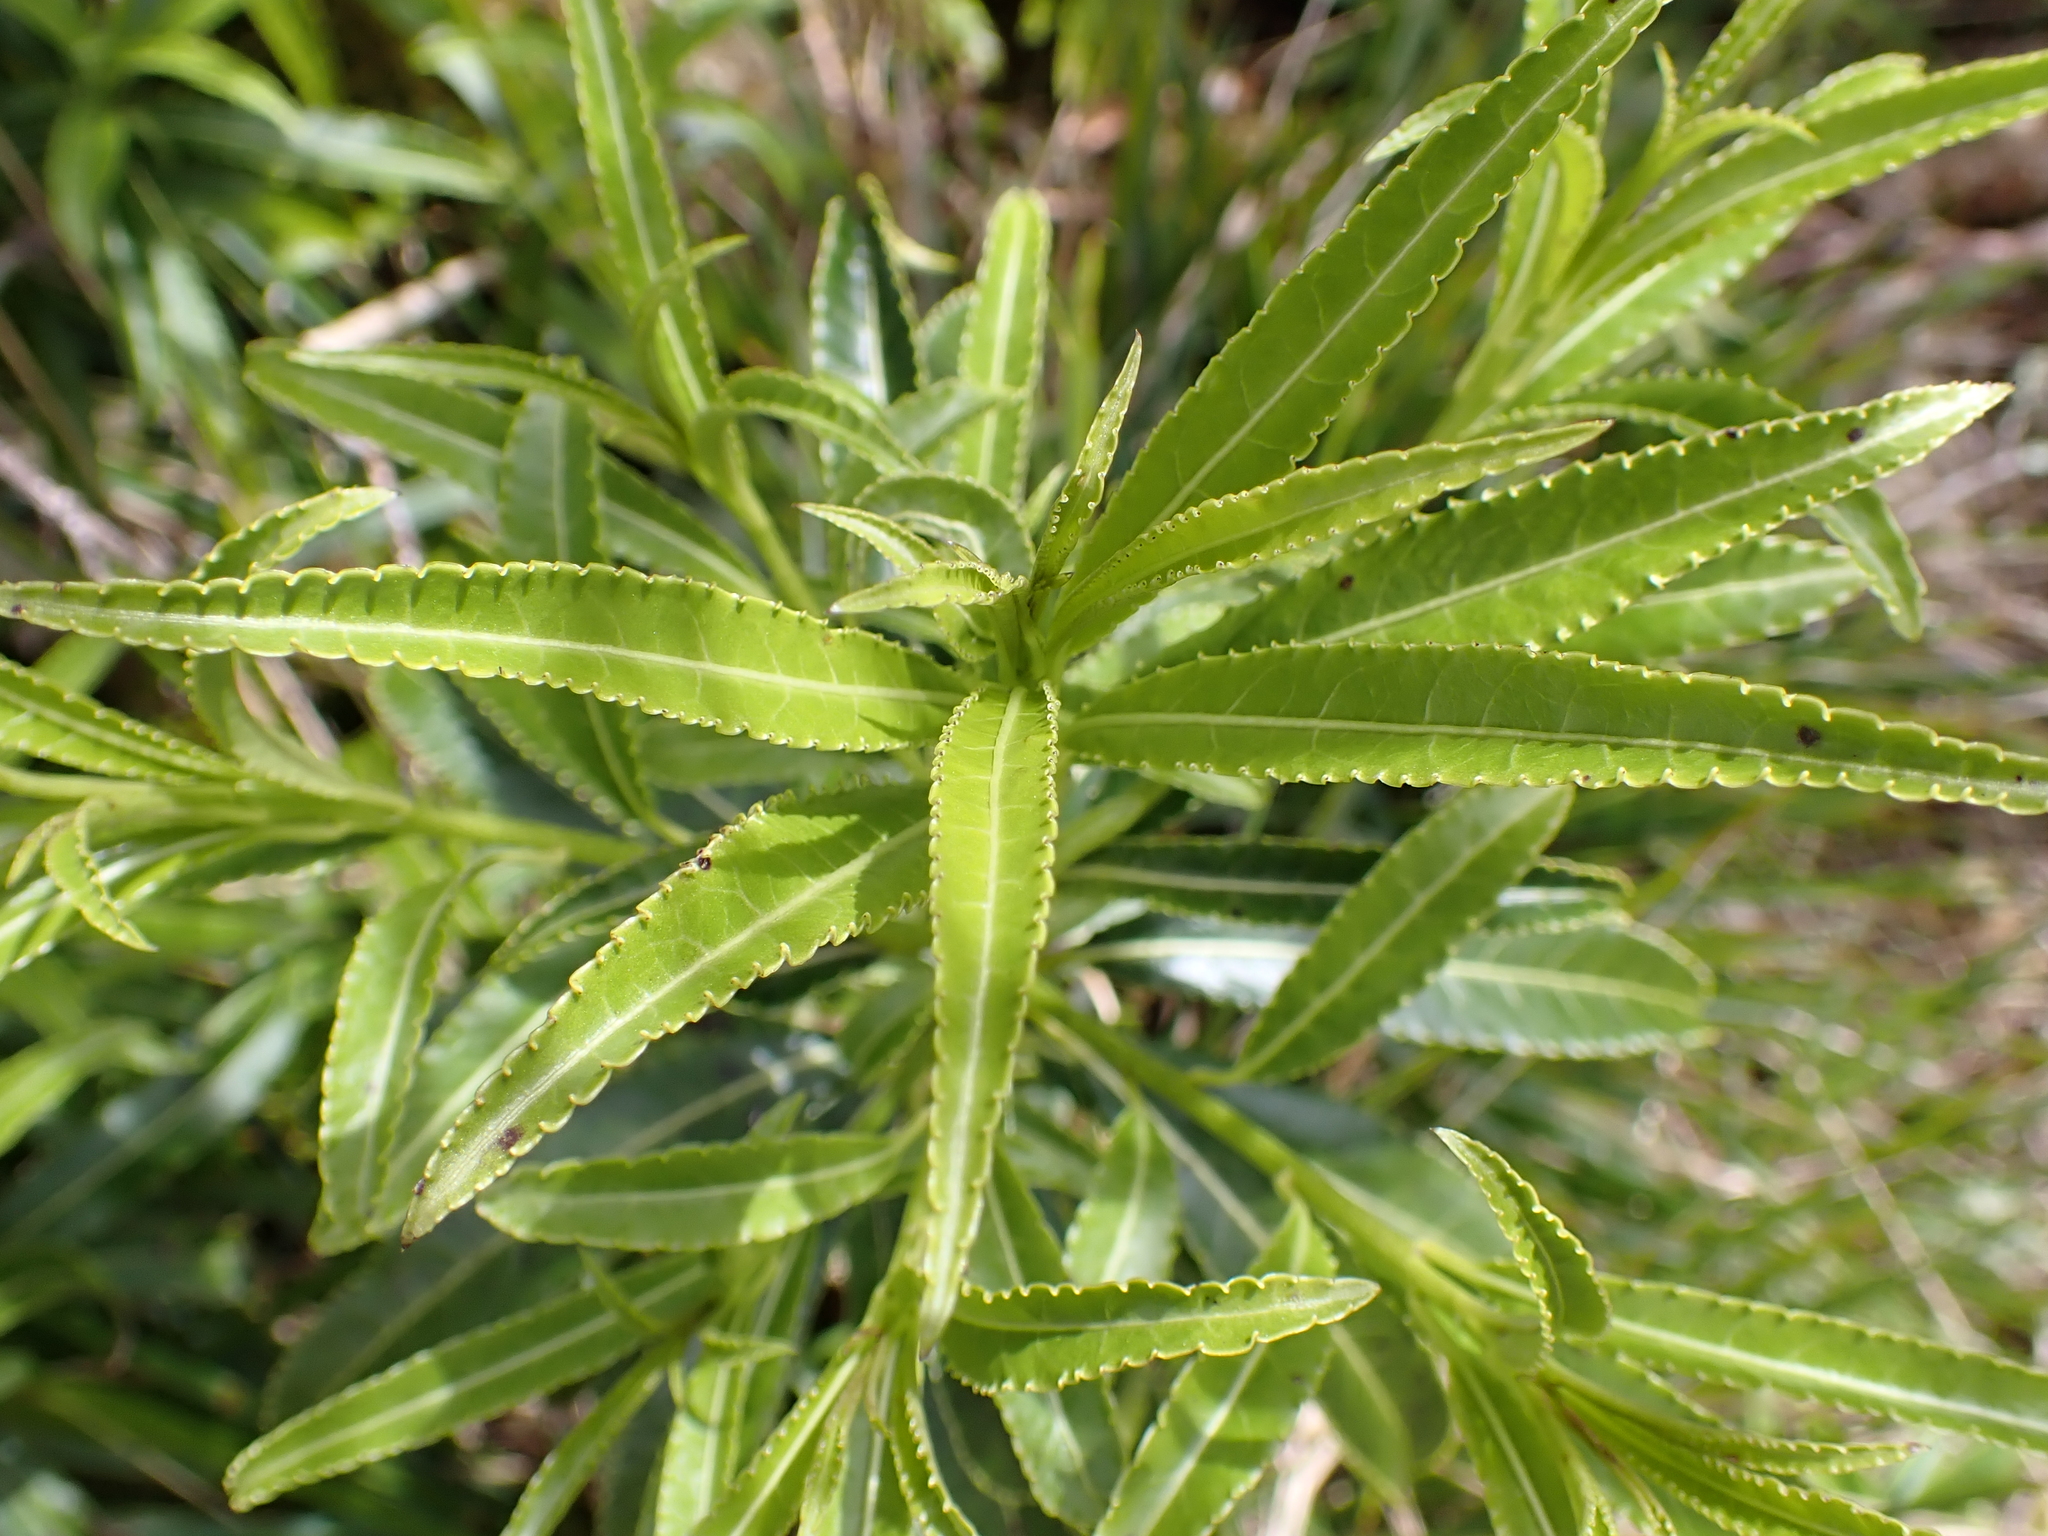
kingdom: Plantae
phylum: Tracheophyta
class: Magnoliopsida
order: Malpighiales
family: Violaceae
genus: Melicytus
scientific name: Melicytus lanceolatus
